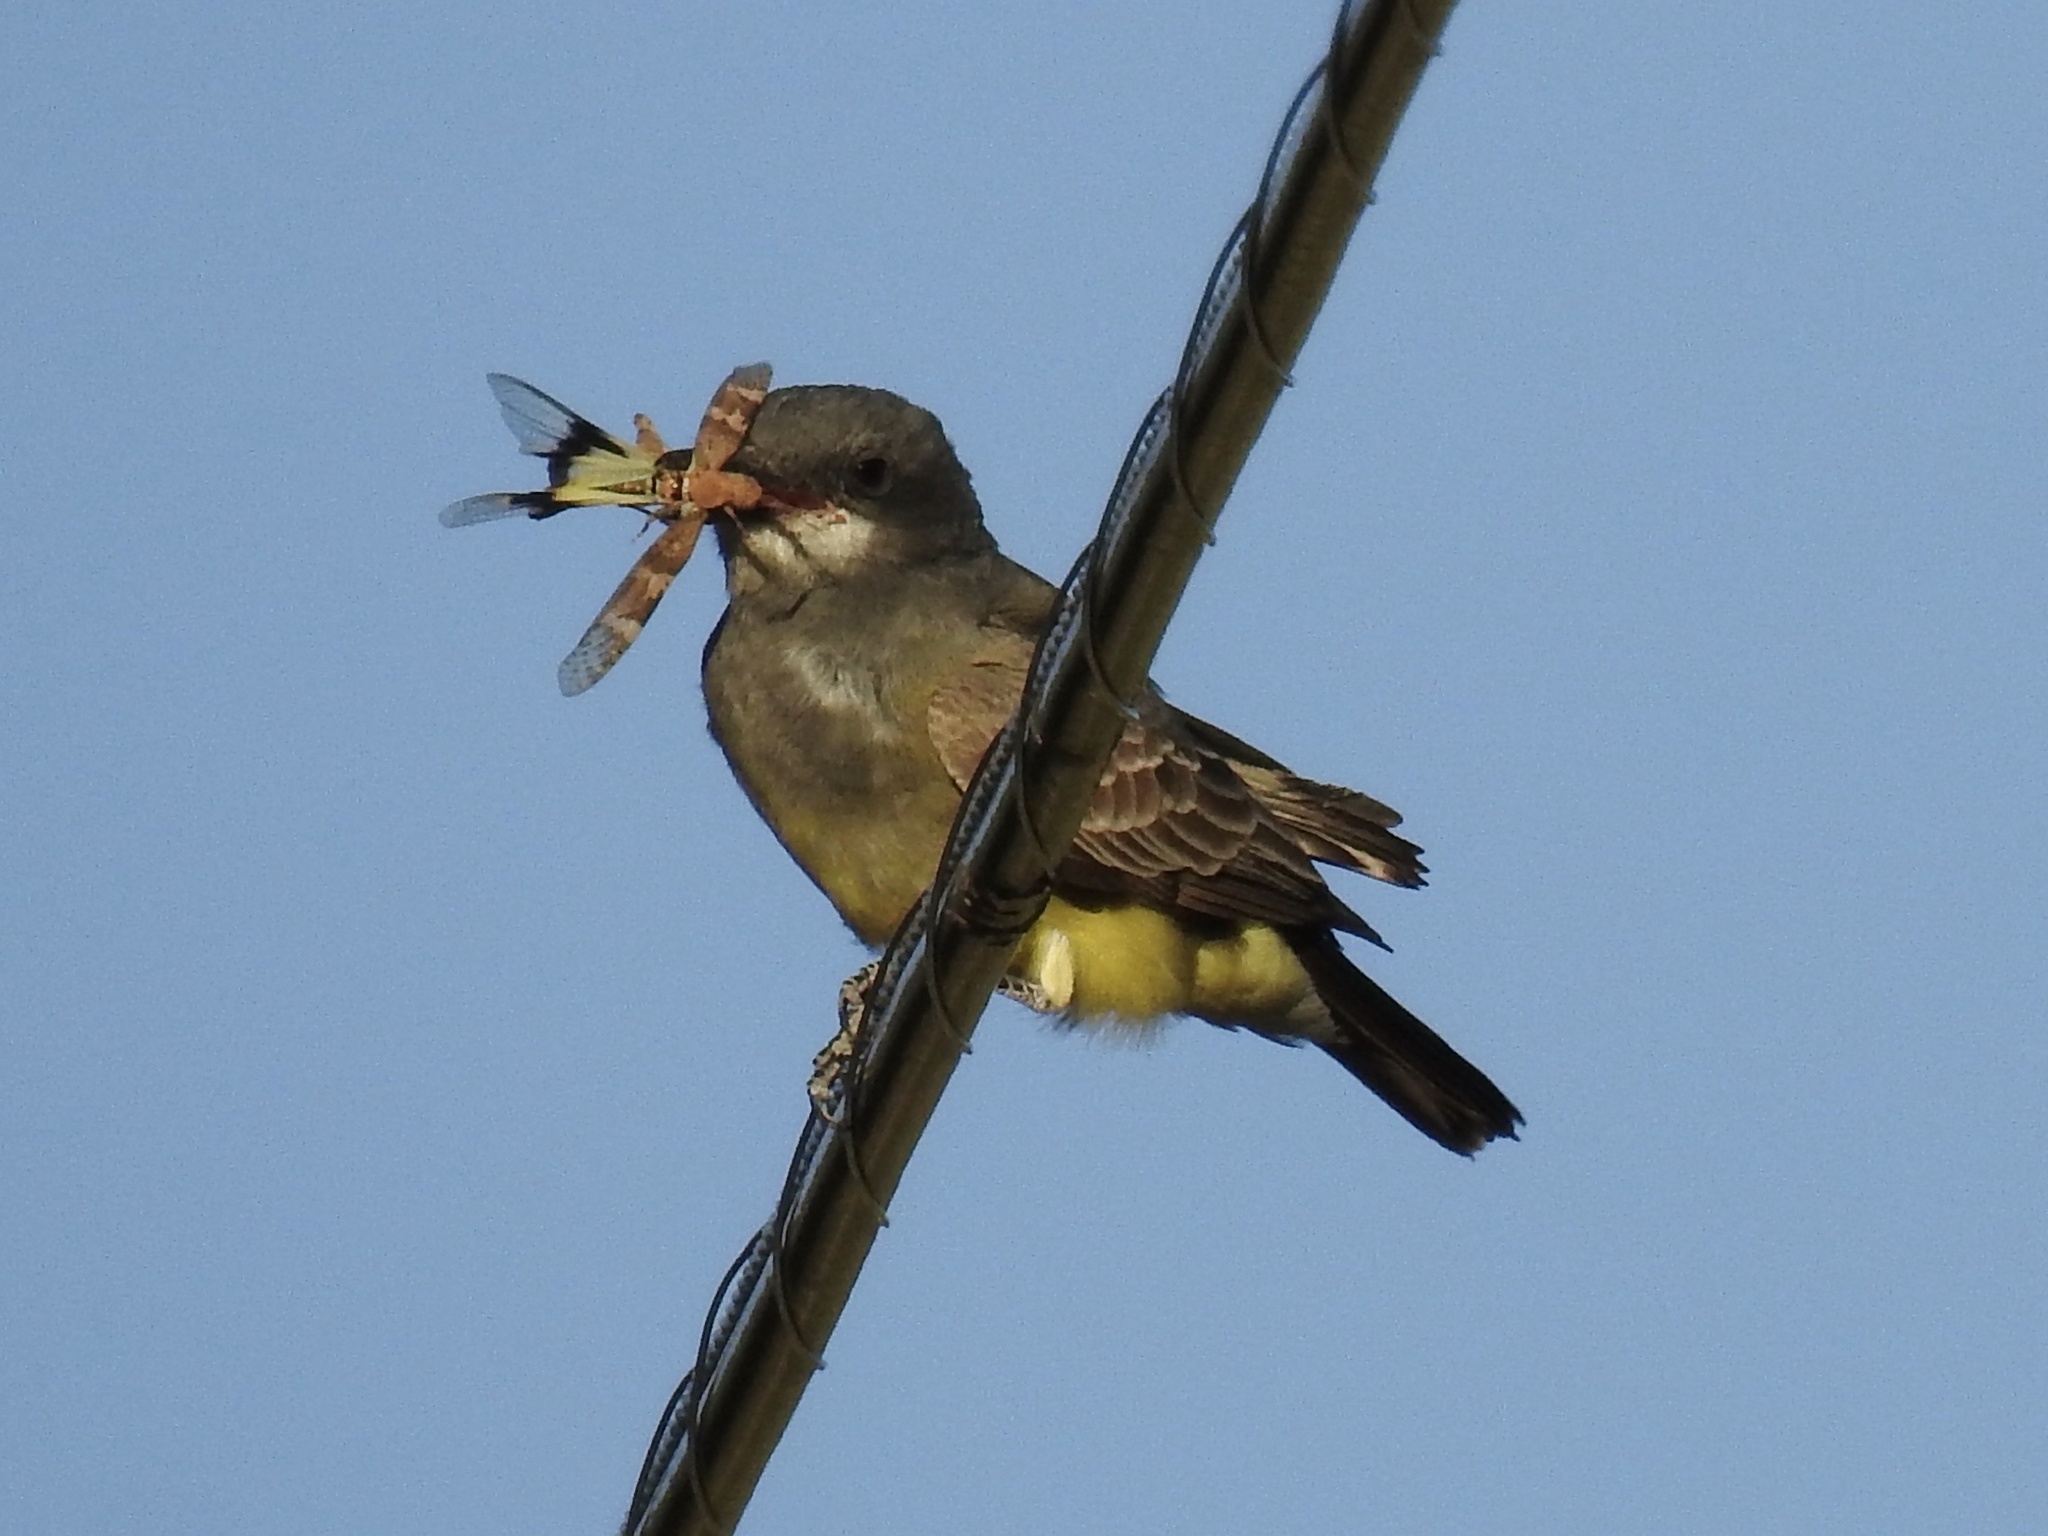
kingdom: Animalia
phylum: Chordata
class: Aves
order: Passeriformes
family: Tyrannidae
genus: Tyrannus
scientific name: Tyrannus vociferans
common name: Cassin's kingbird
